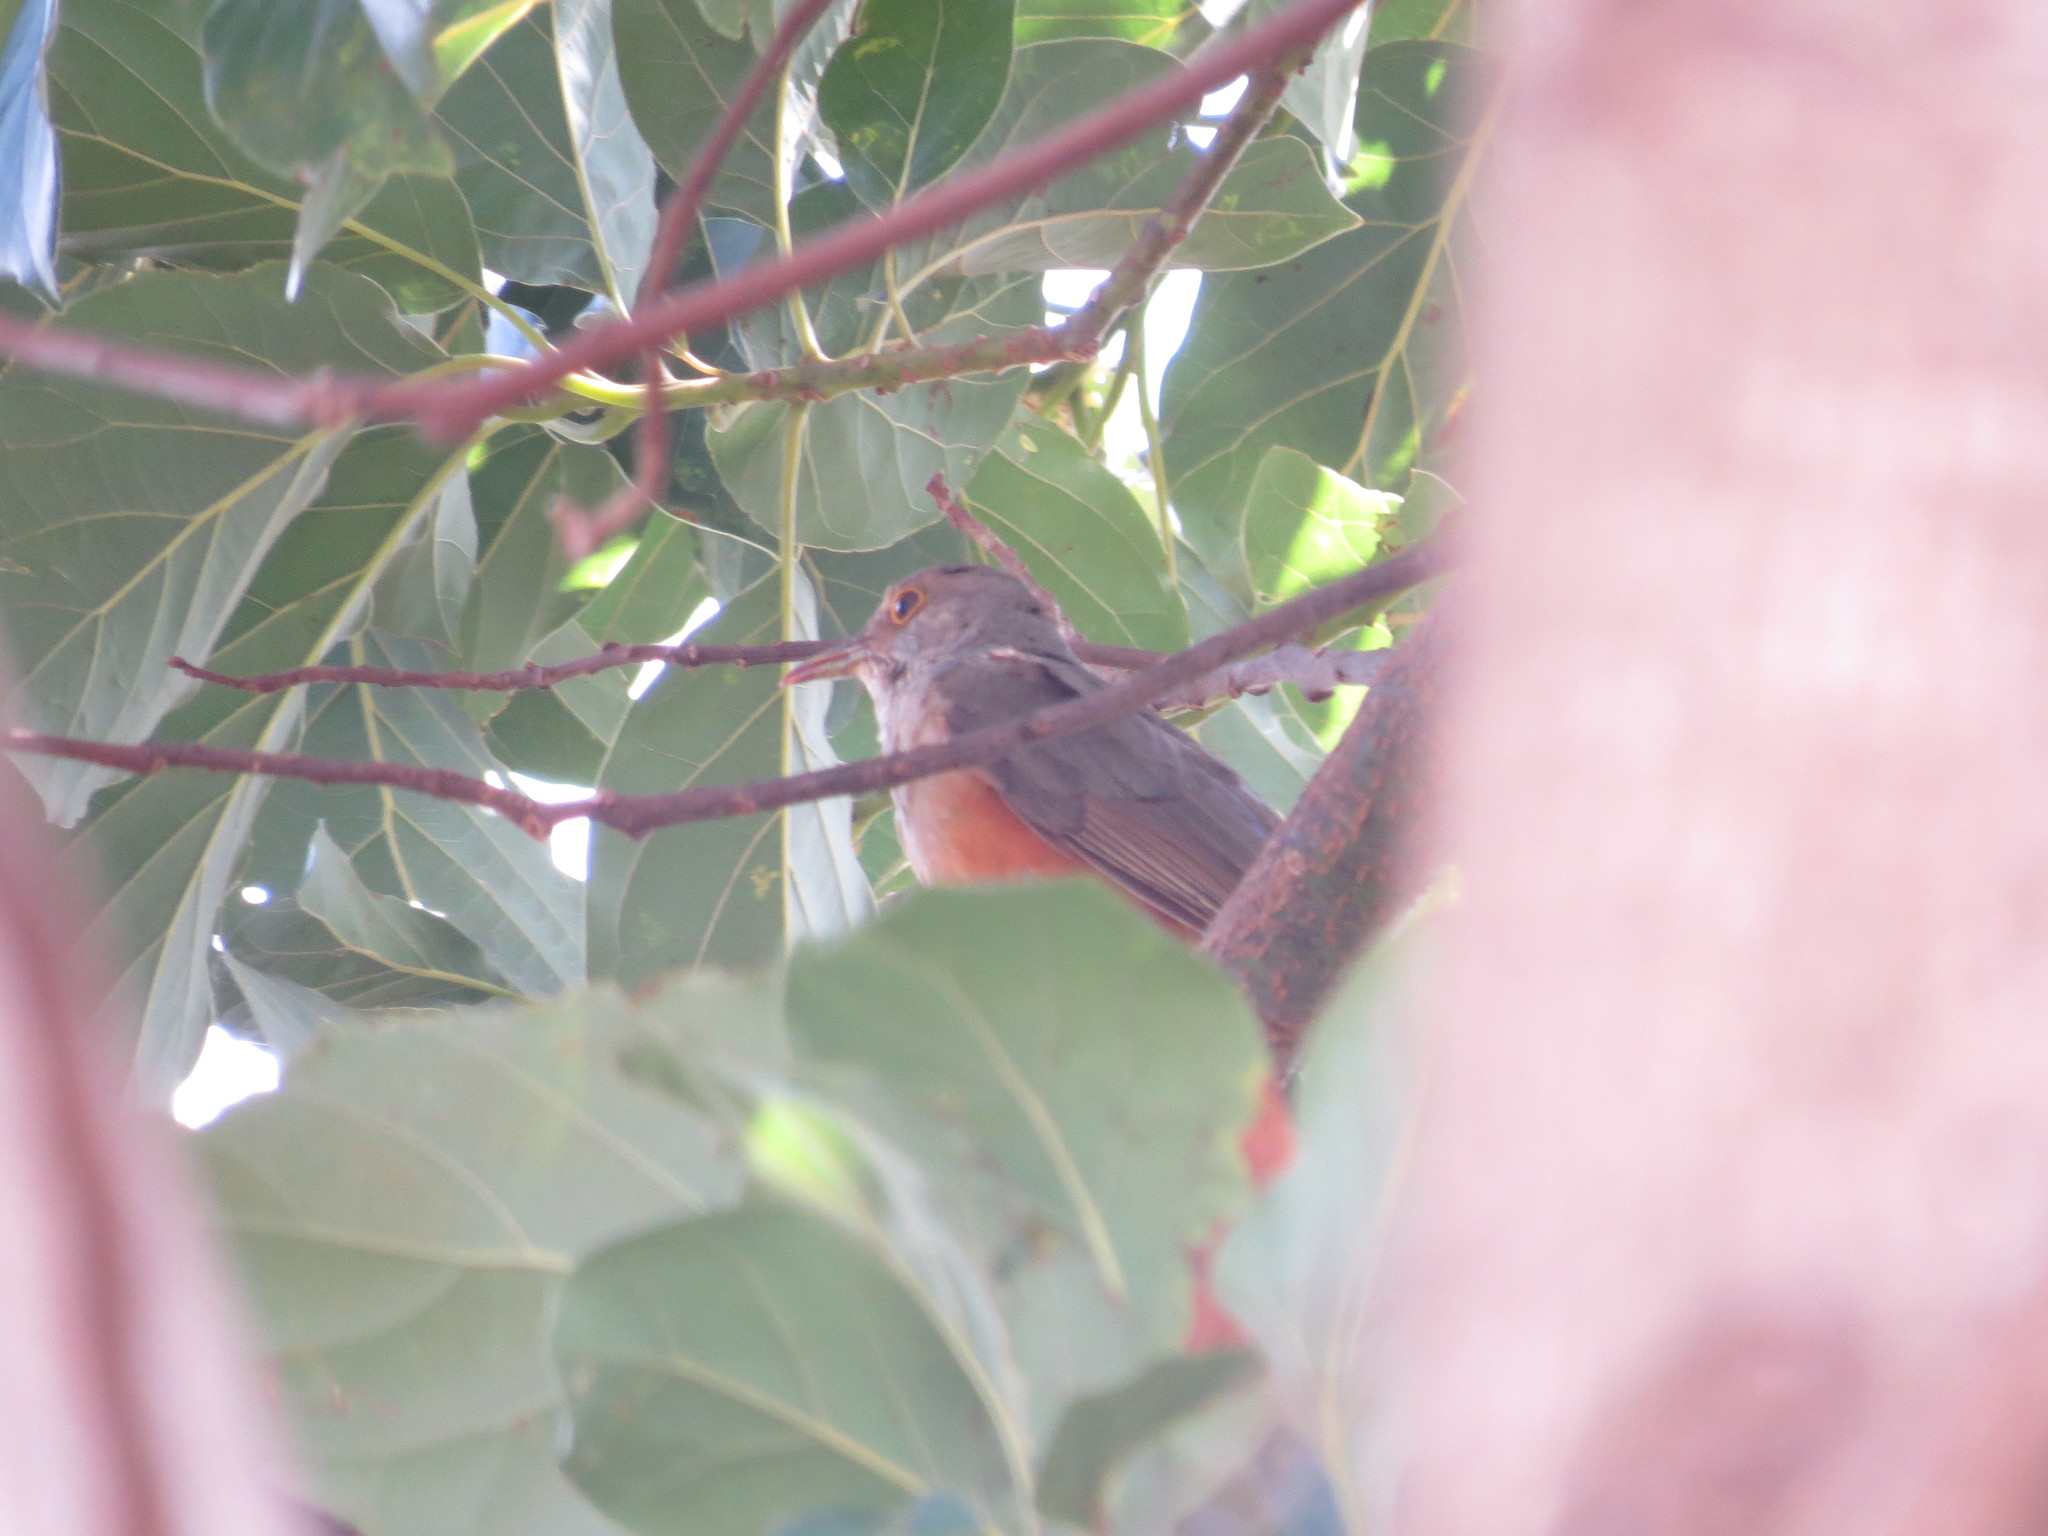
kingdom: Animalia
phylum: Chordata
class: Aves
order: Passeriformes
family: Turdidae
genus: Turdus
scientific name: Turdus rufiventris
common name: Rufous-bellied thrush
